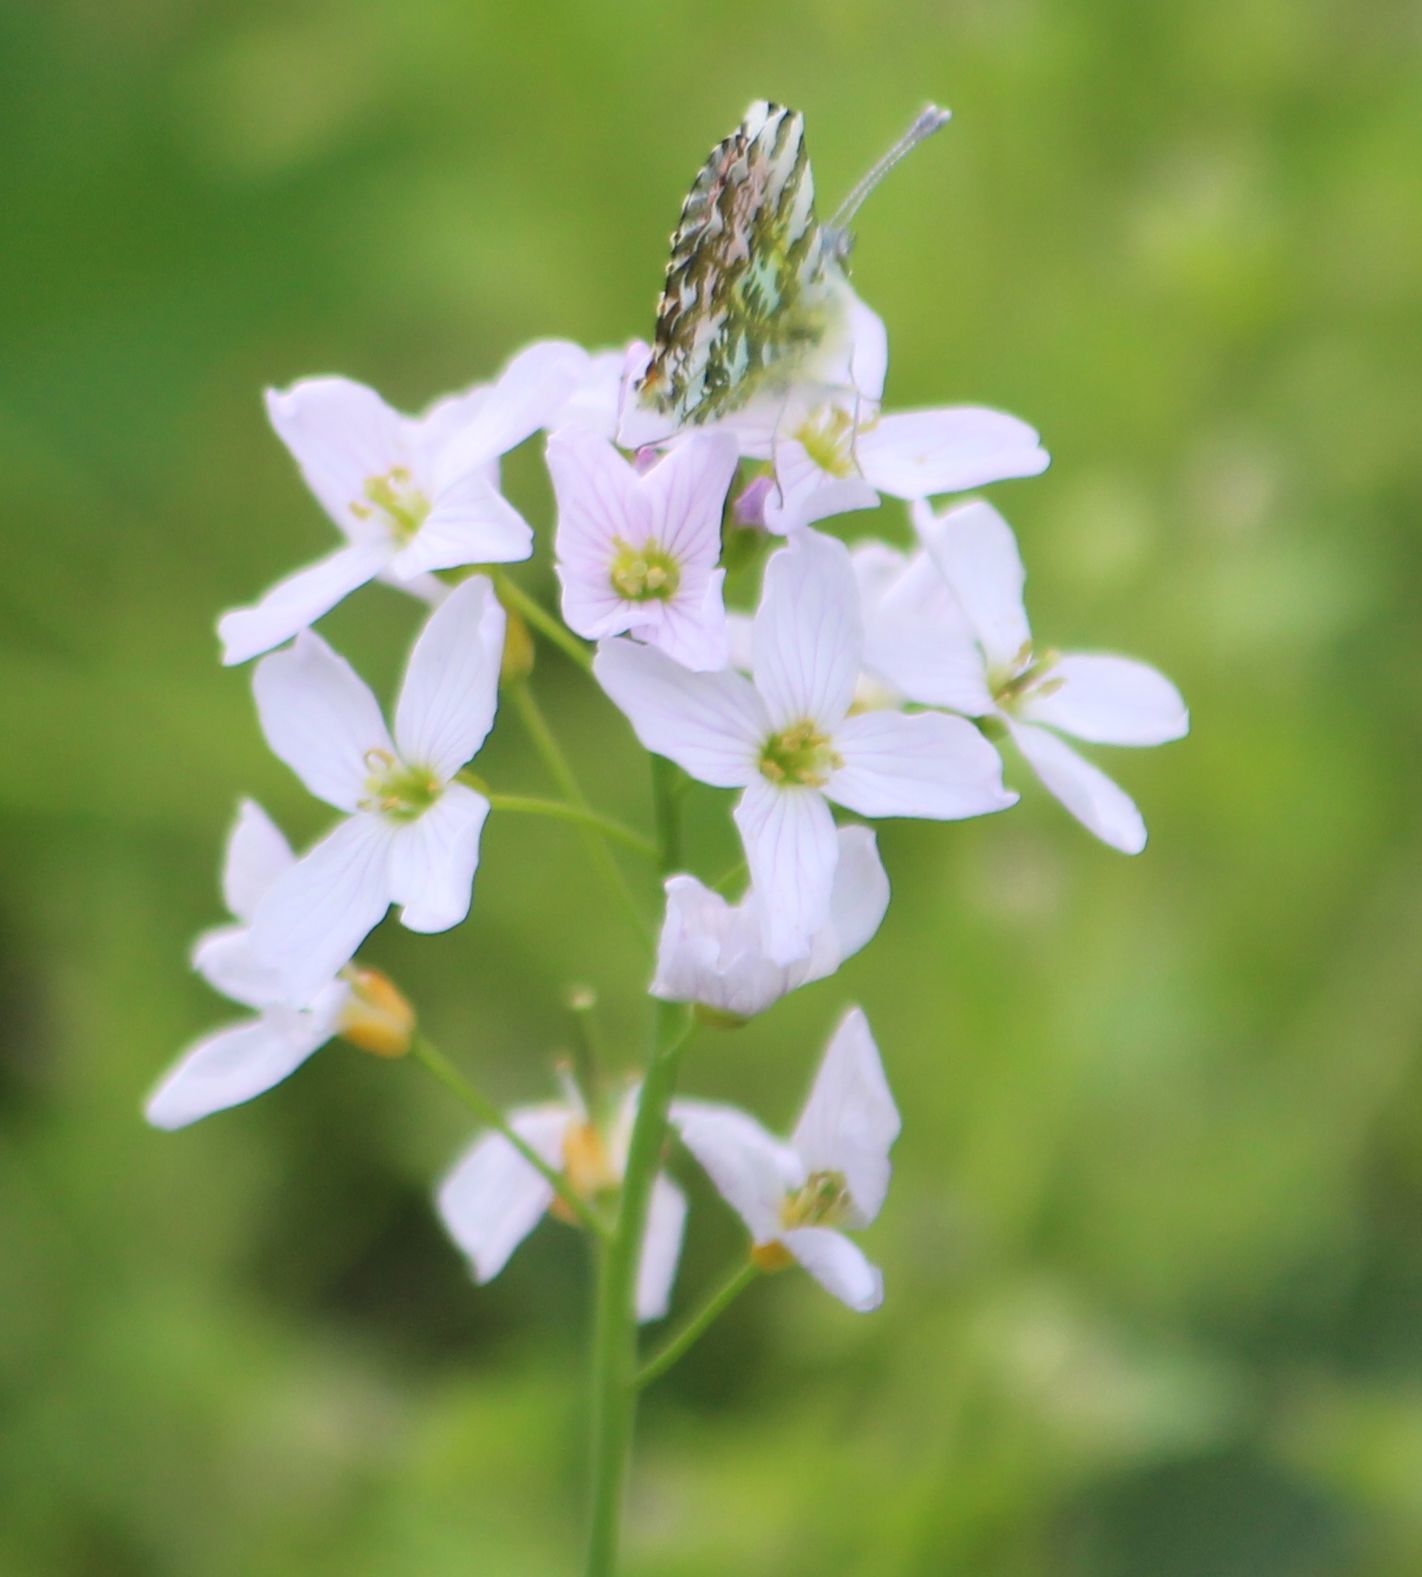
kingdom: Plantae
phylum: Tracheophyta
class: Magnoliopsida
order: Brassicales
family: Brassicaceae
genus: Cardamine
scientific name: Cardamine pratensis
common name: Cuckoo flower
